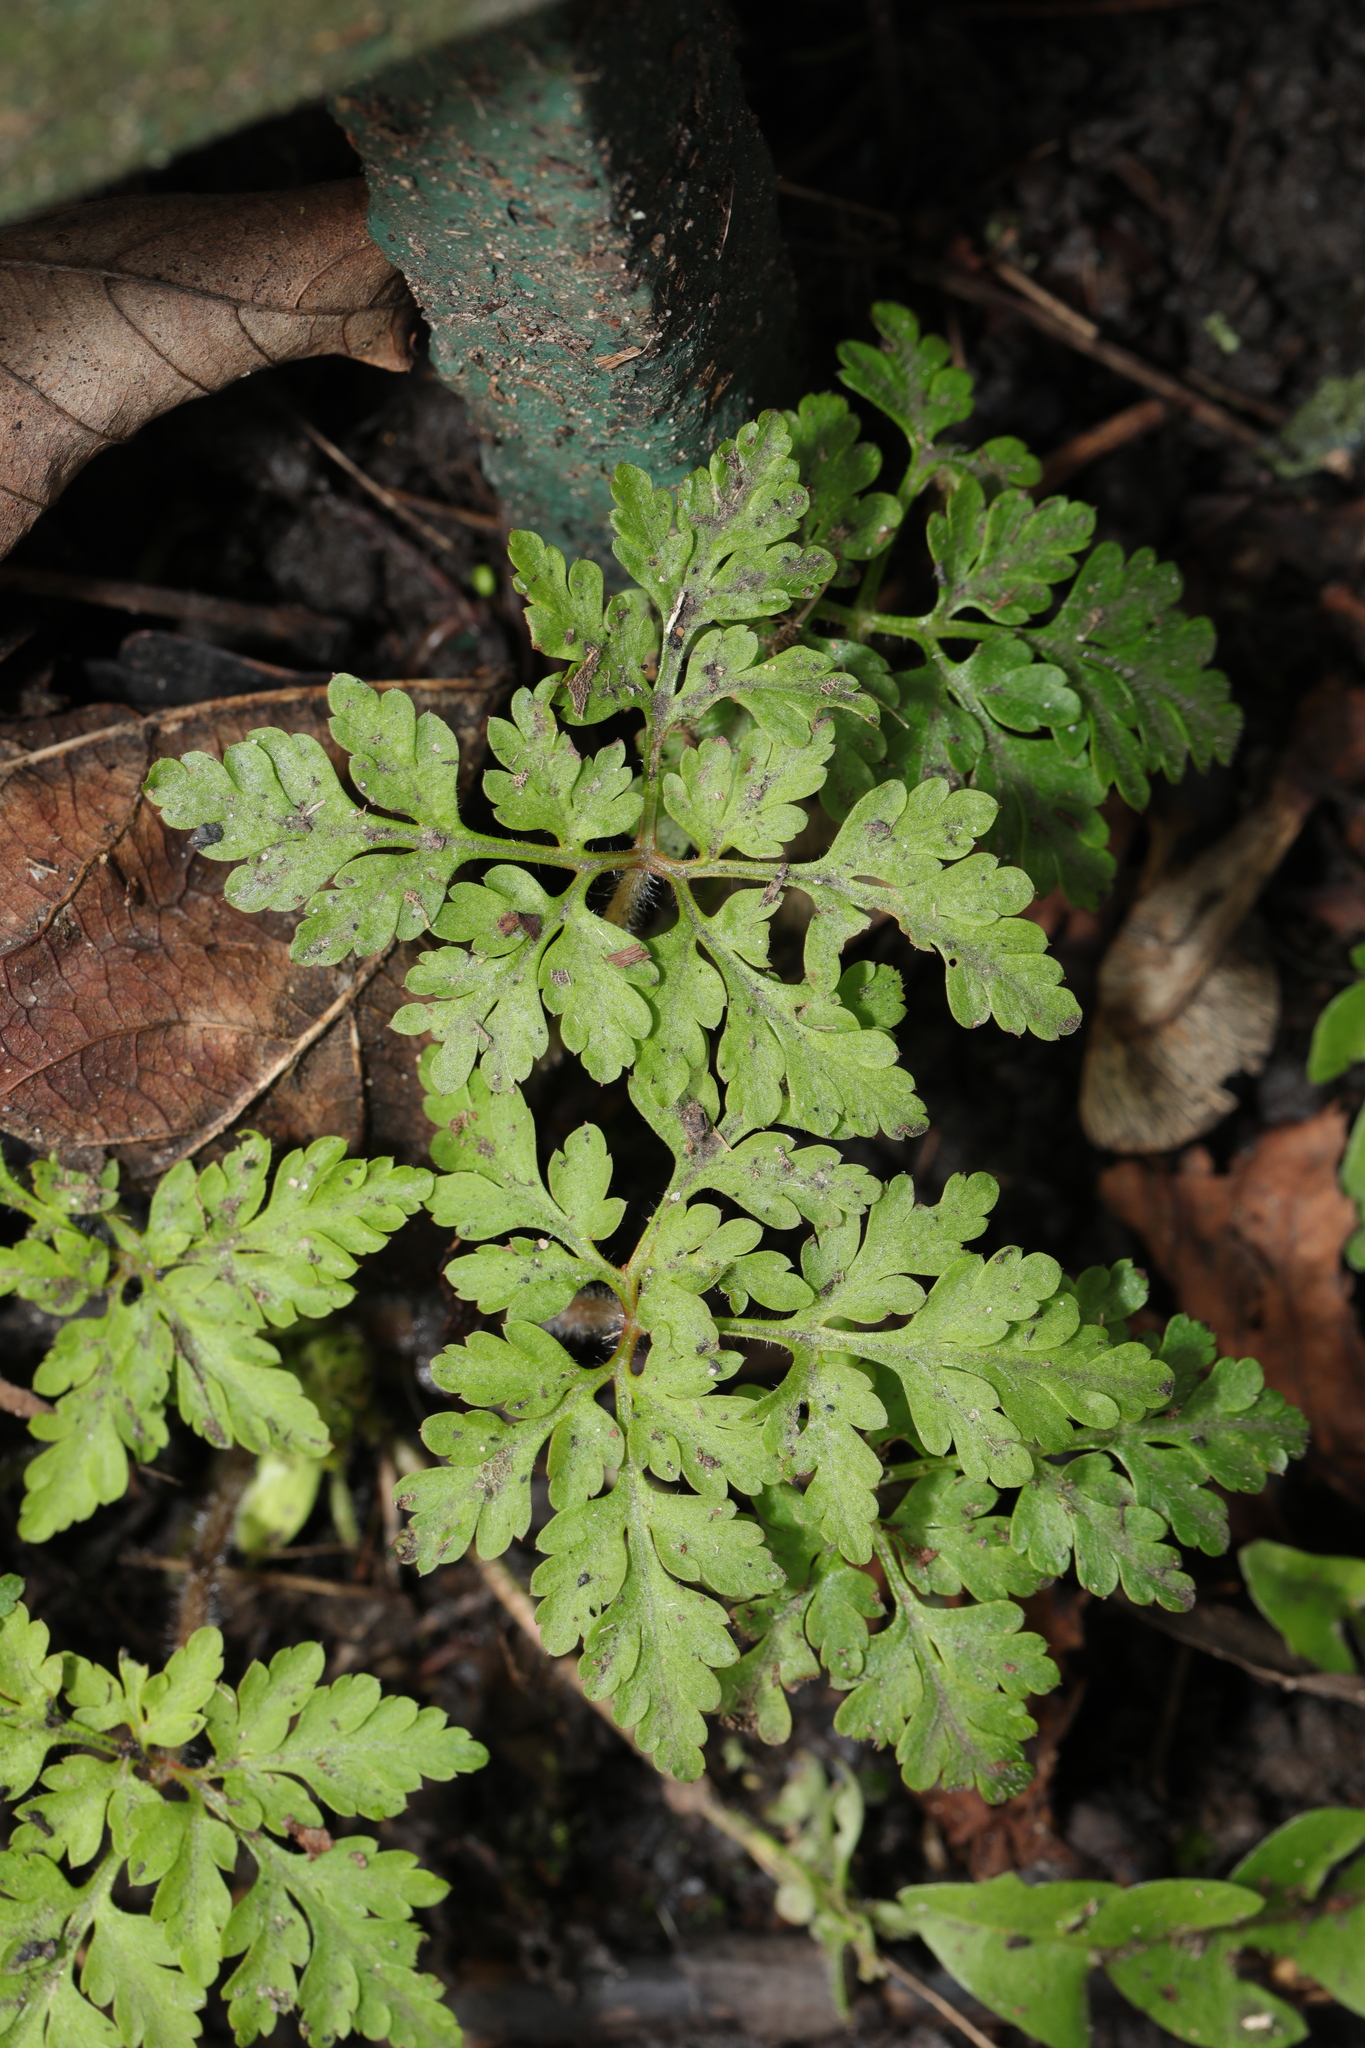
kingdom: Plantae
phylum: Tracheophyta
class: Magnoliopsida
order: Geraniales
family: Geraniaceae
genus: Geranium
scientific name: Geranium robertianum
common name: Herb-robert
